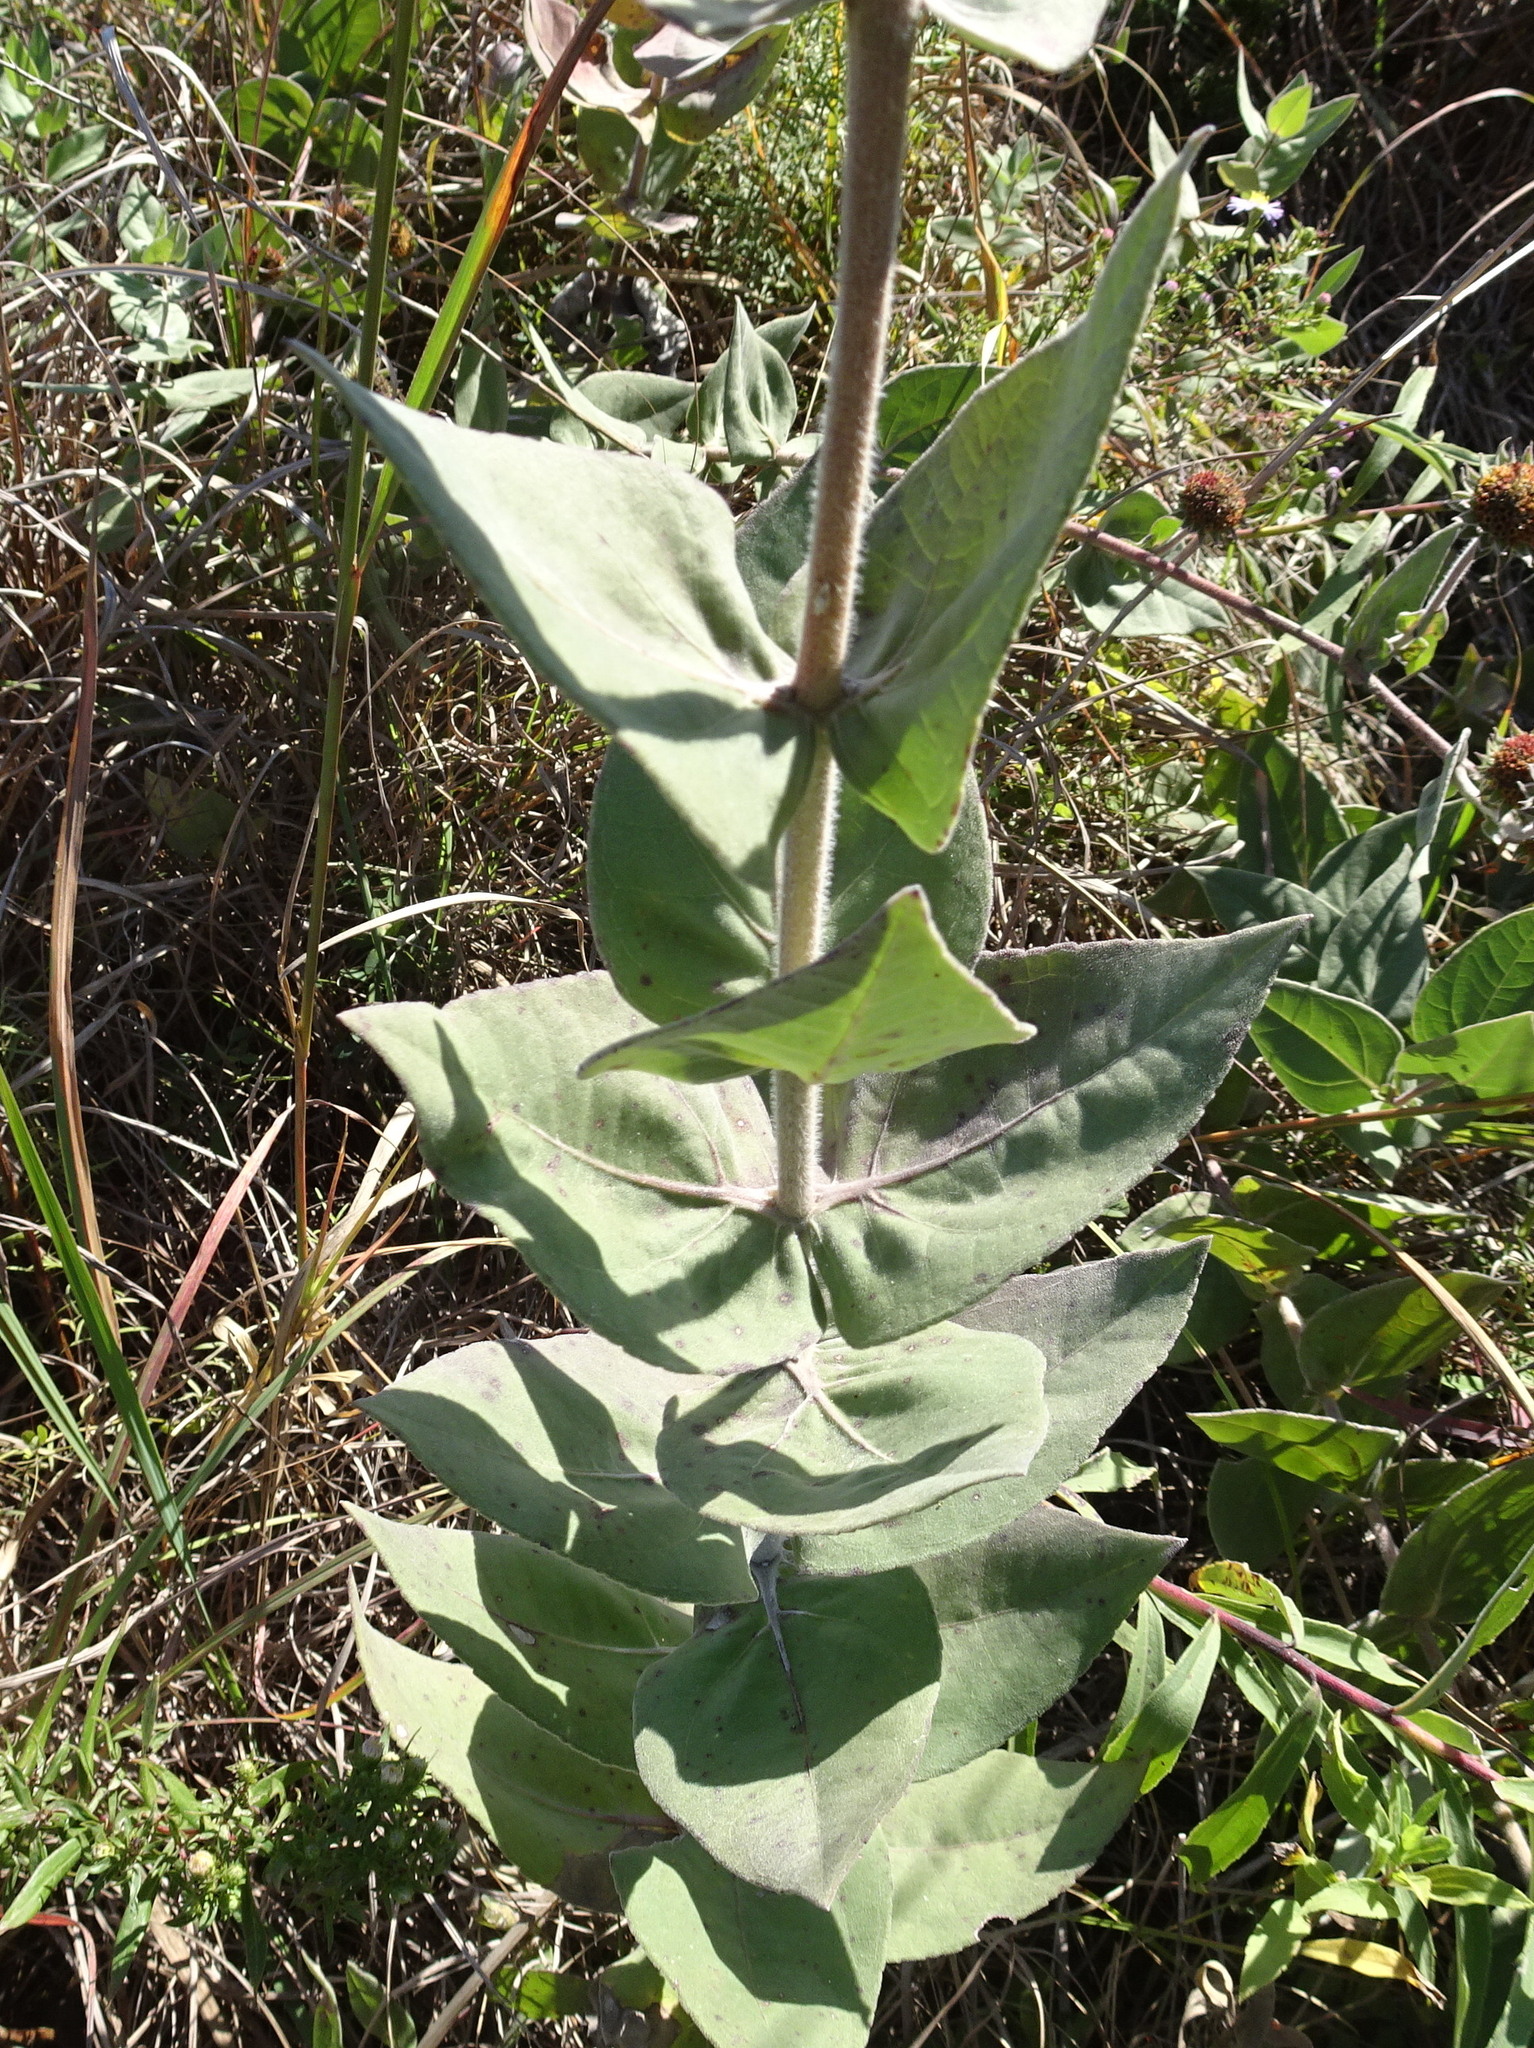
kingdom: Plantae
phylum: Tracheophyta
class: Magnoliopsida
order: Asterales
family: Asteraceae
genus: Helianthus
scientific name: Helianthus mollis
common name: Ashy sunflower
